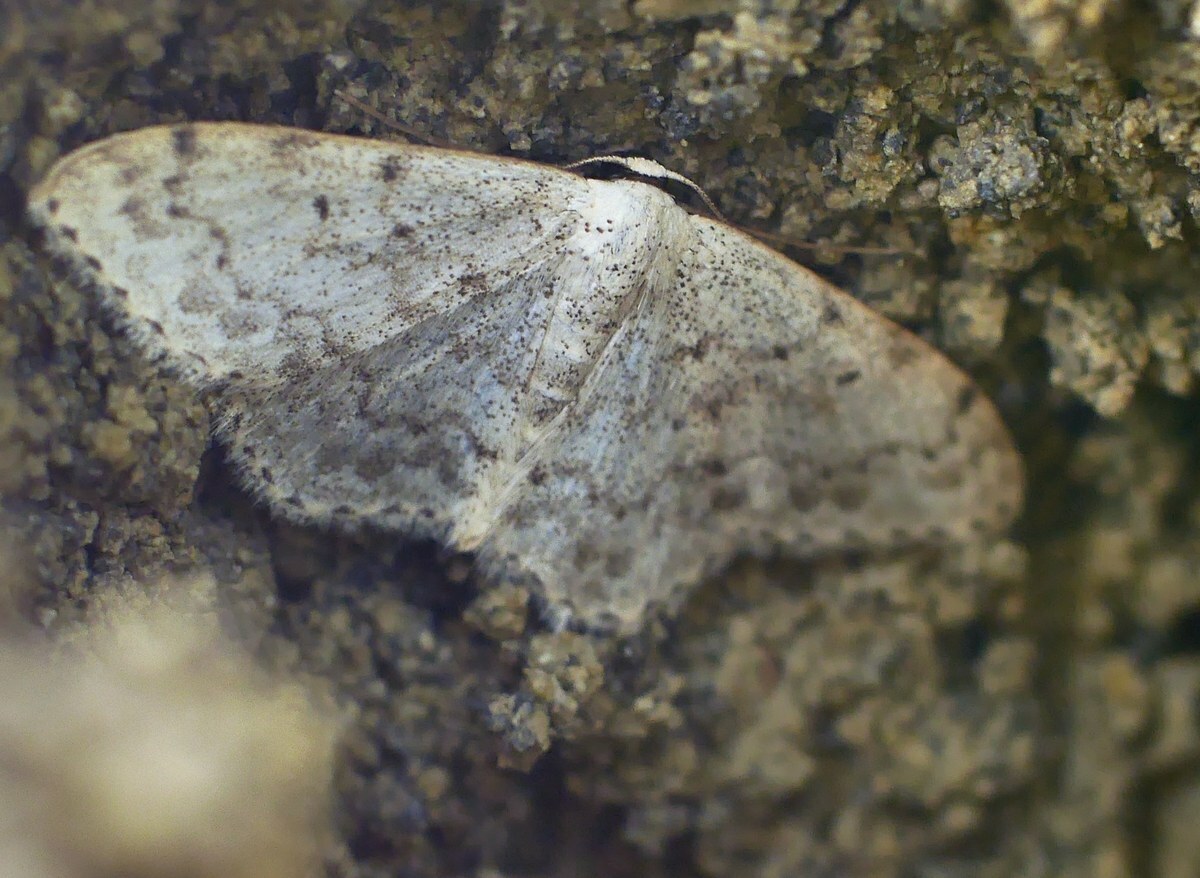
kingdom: Animalia
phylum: Arthropoda
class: Insecta
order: Lepidoptera
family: Geometridae
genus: Scopula
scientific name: Scopula marginepunctata
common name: Mullein wave
